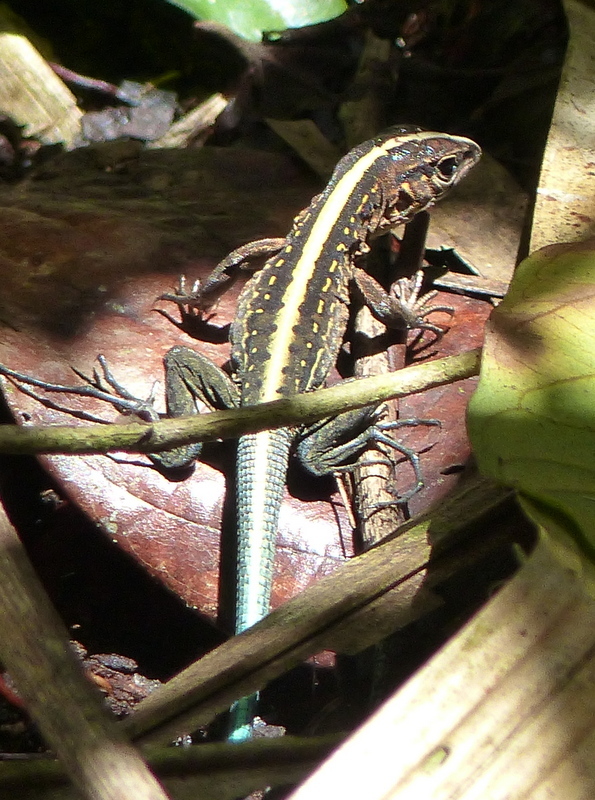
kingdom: Animalia
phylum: Chordata
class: Squamata
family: Teiidae
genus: Holcosus
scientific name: Holcosus festivus
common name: Middle american ameiva
